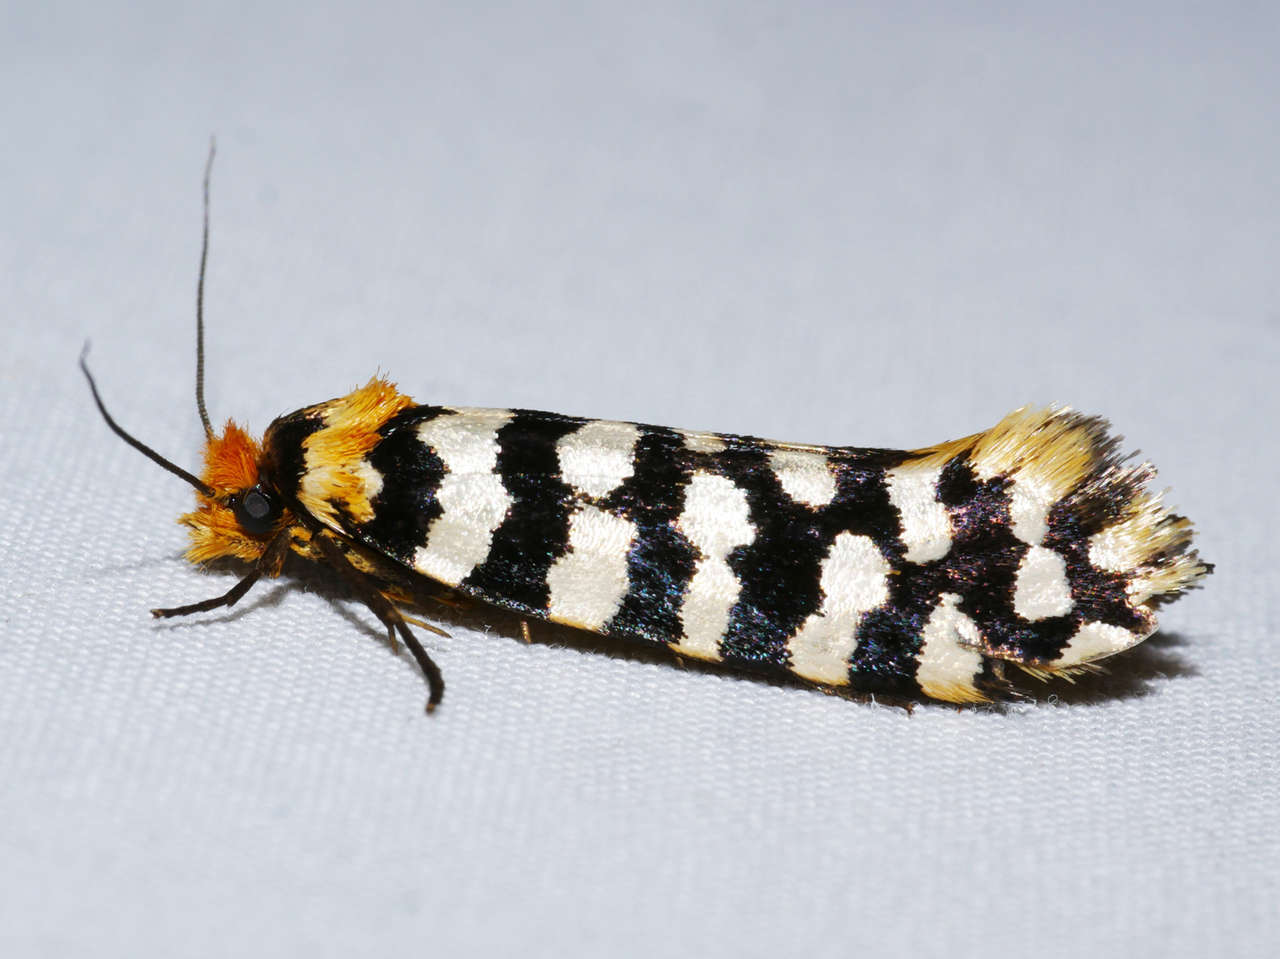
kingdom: Animalia
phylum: Arthropoda
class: Insecta
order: Lepidoptera
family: Tineidae
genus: Moerarchis
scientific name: Moerarchis australasiella
